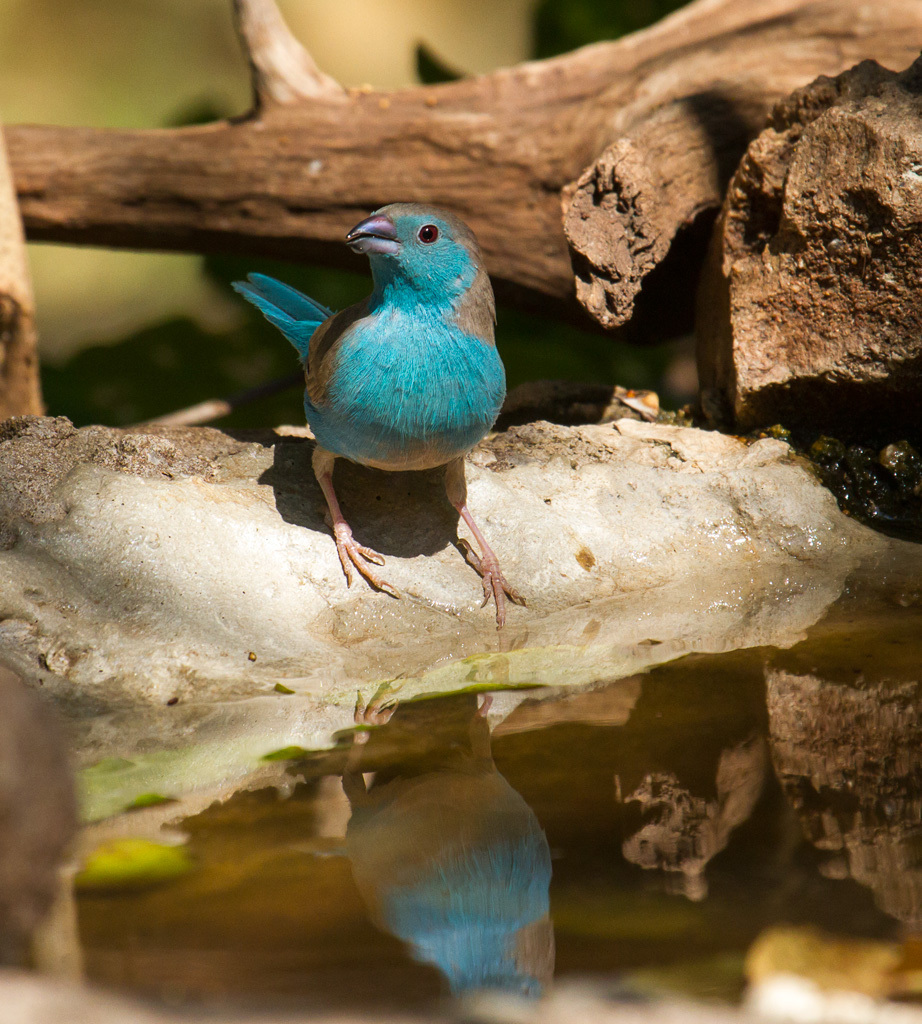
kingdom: Animalia
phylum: Chordata
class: Aves
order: Passeriformes
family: Estrildidae
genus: Uraeginthus
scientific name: Uraeginthus angolensis
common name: Blue waxbill
